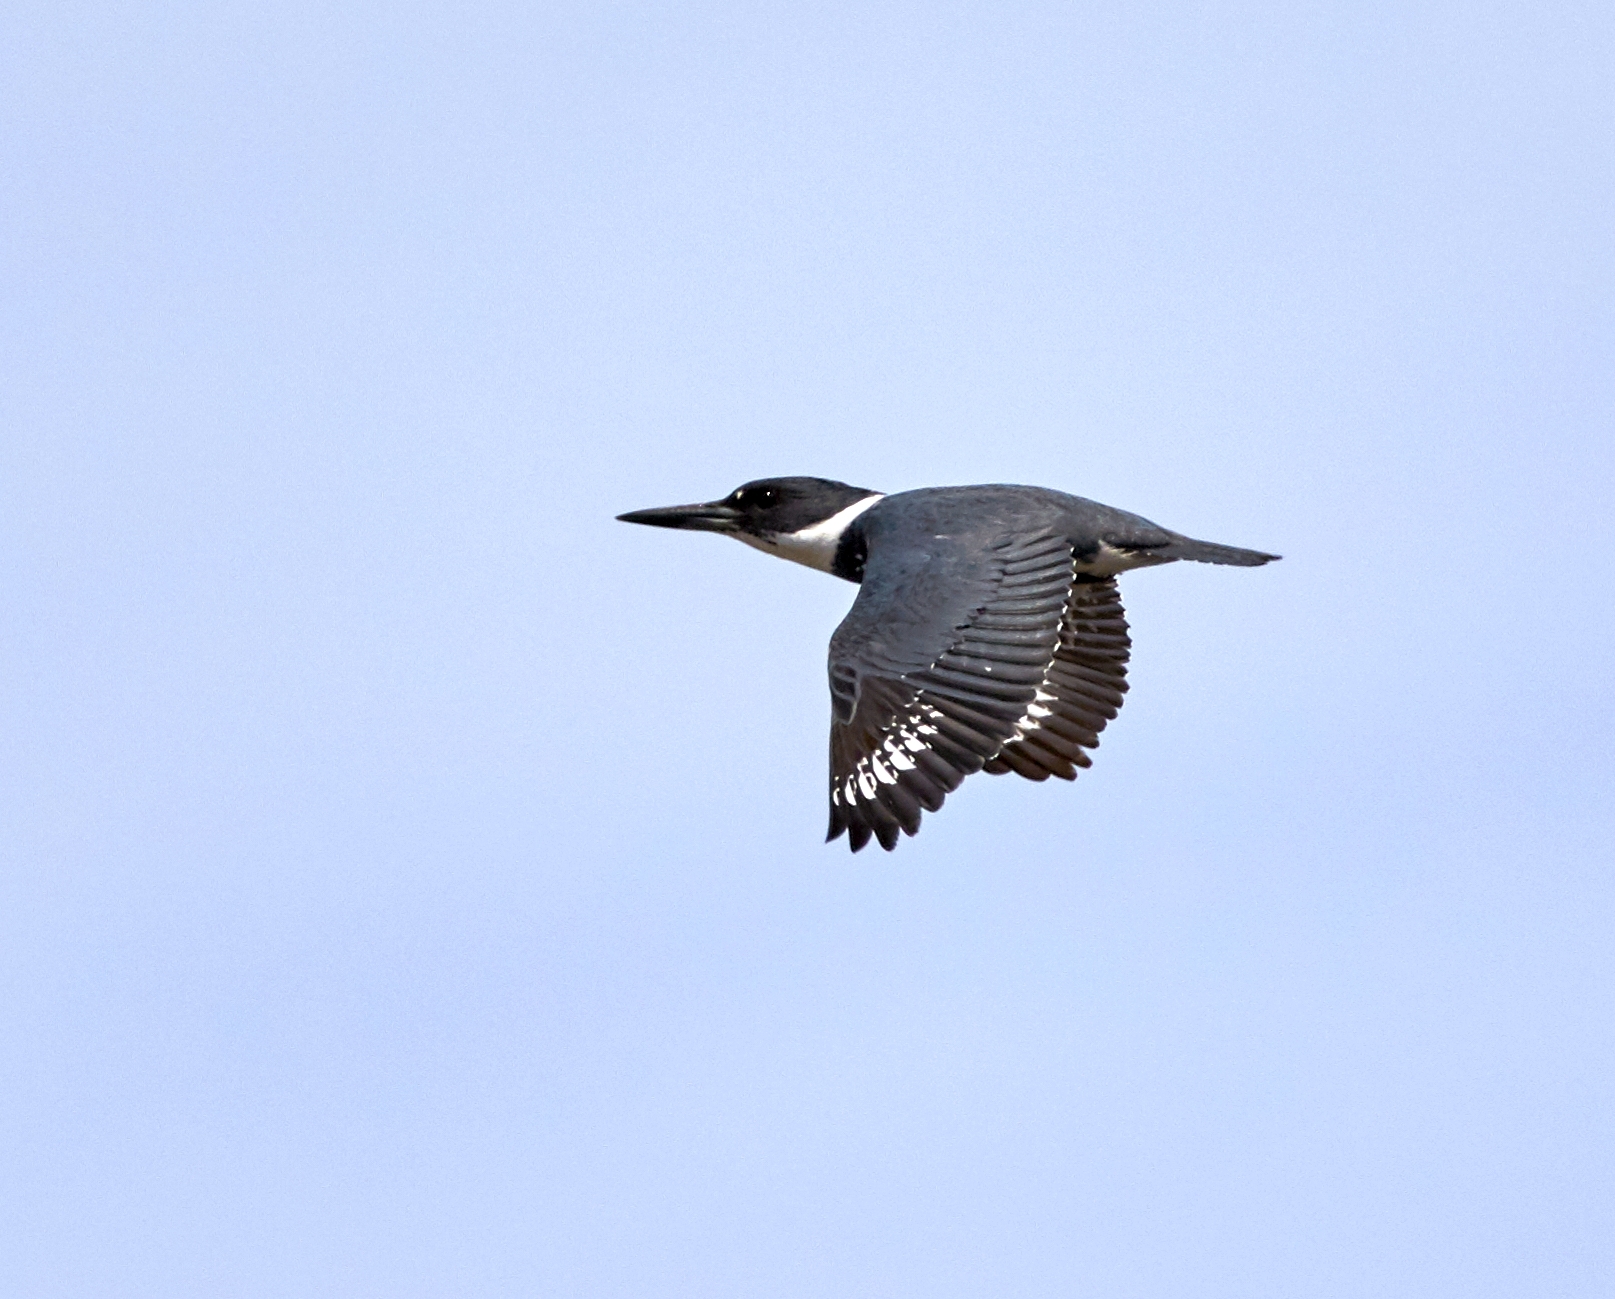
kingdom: Animalia
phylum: Chordata
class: Aves
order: Coraciiformes
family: Alcedinidae
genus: Megaceryle
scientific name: Megaceryle alcyon
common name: Belted kingfisher
